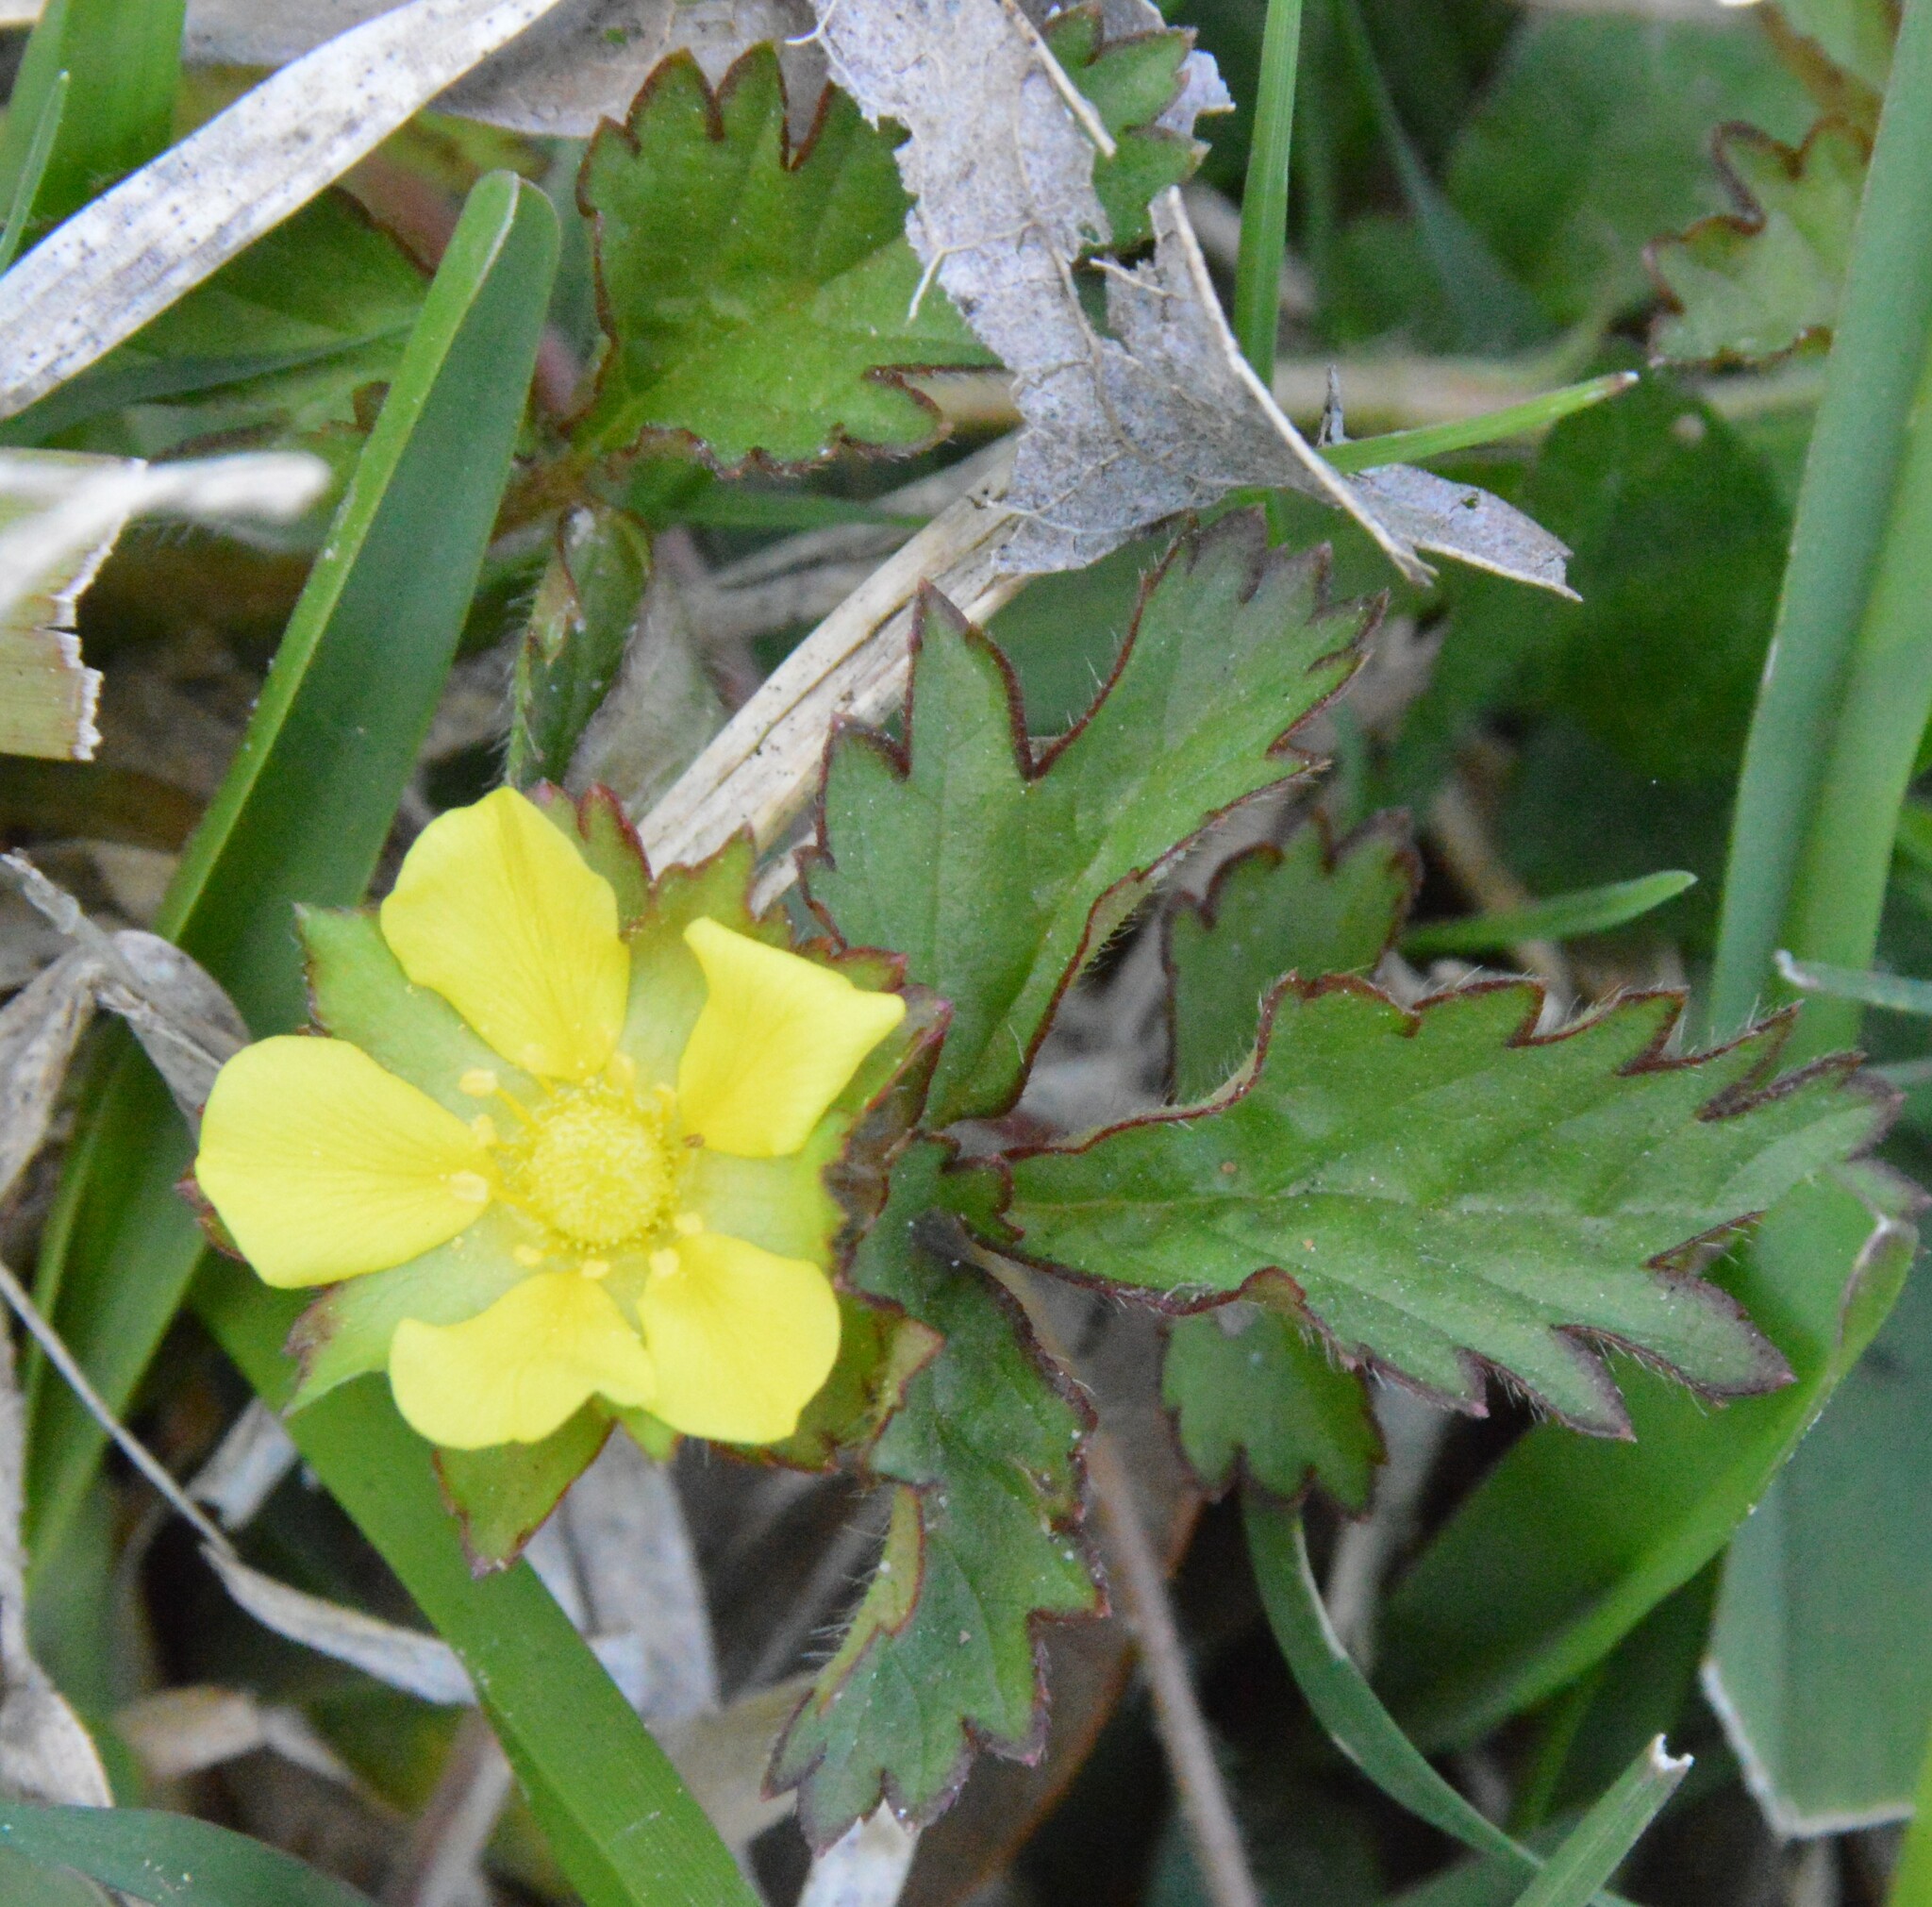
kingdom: Plantae
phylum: Tracheophyta
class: Magnoliopsida
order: Rosales
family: Rosaceae
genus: Potentilla
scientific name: Potentilla indica
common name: Yellow-flowered strawberry
